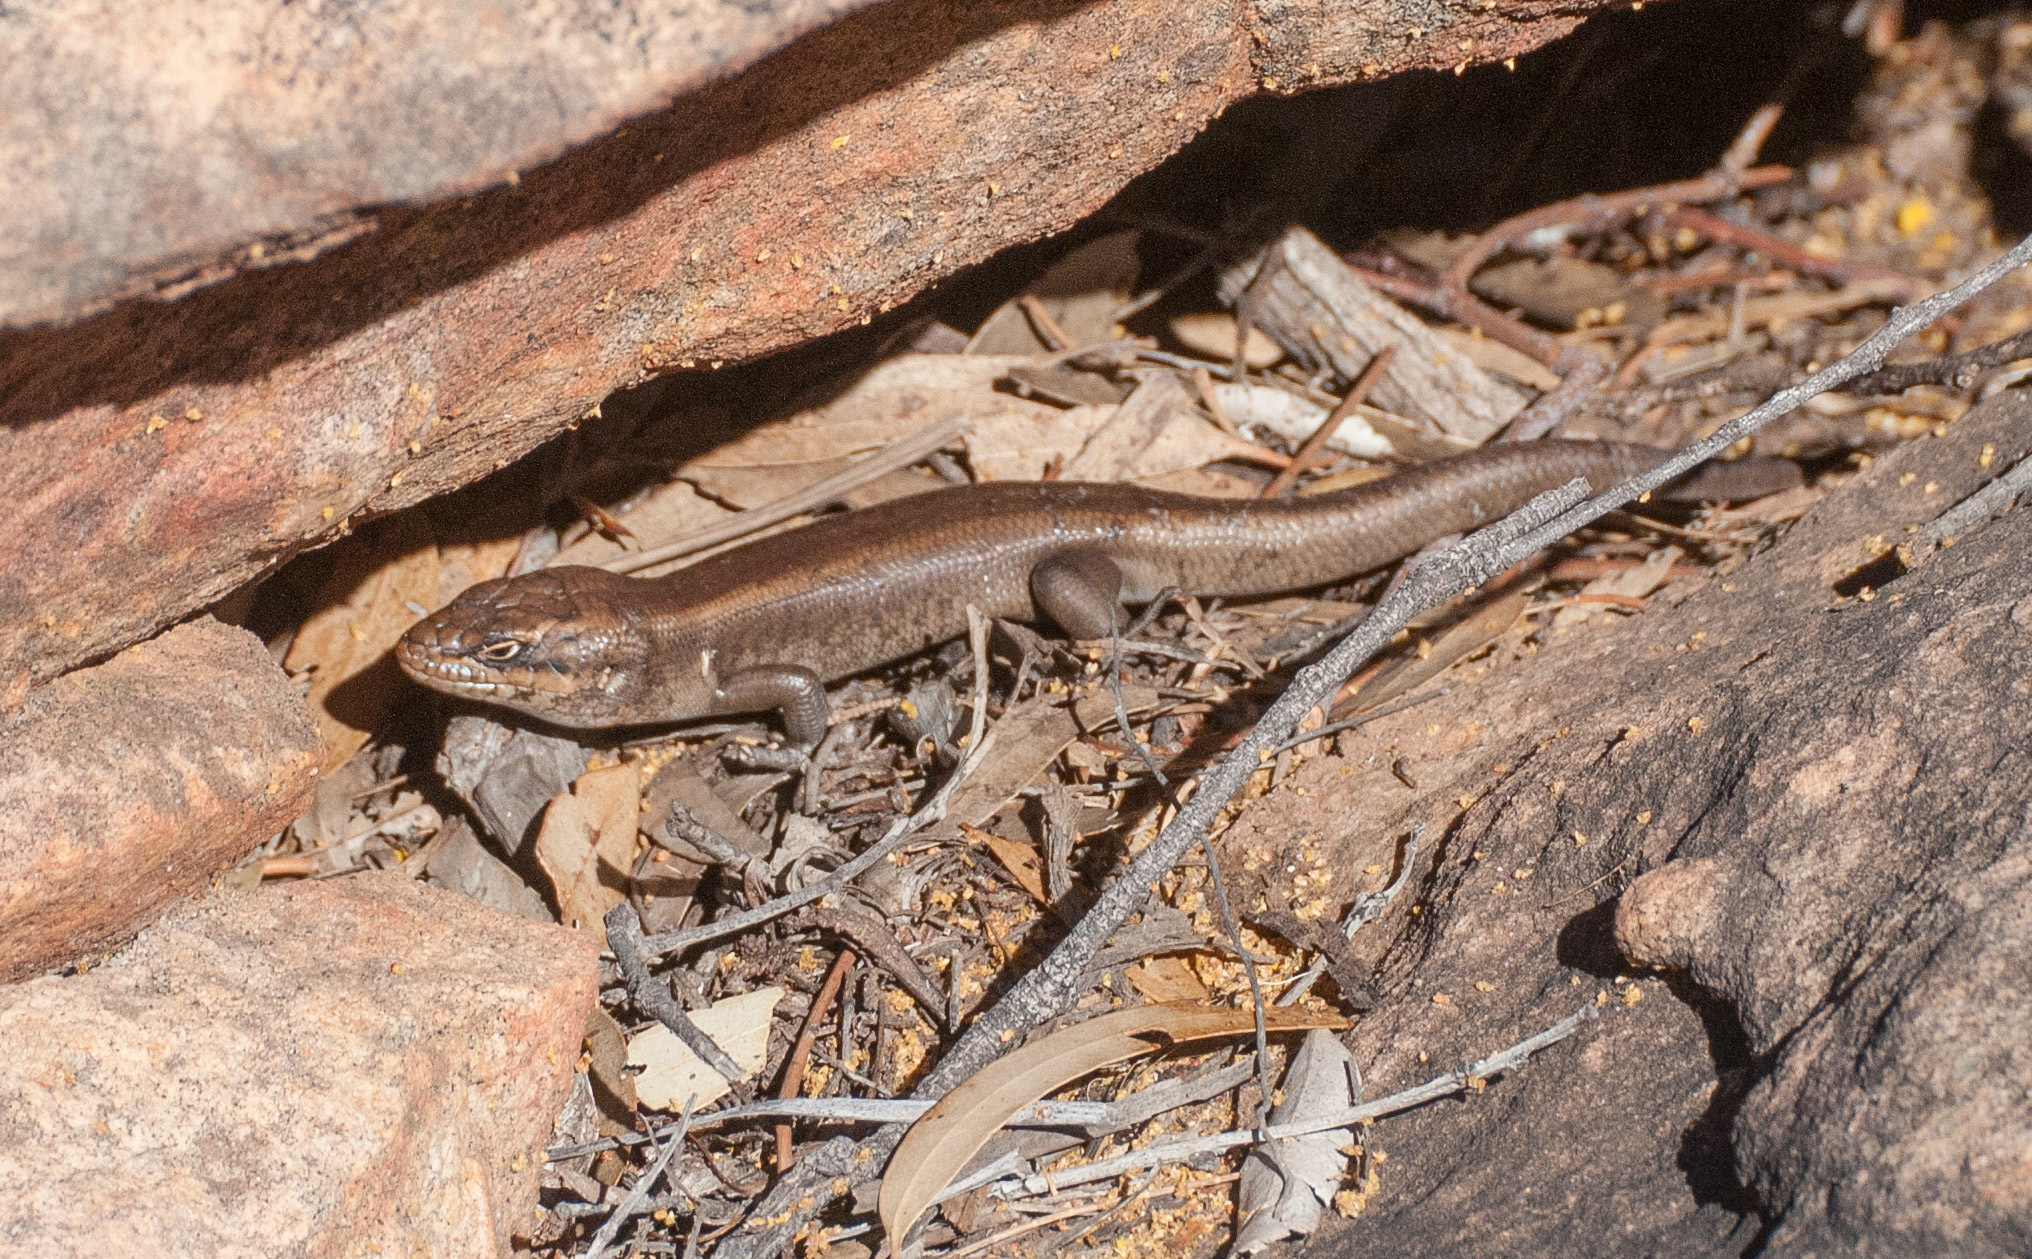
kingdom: Animalia
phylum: Chordata
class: Squamata
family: Scincidae
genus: Liopholis
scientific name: Liopholis personata
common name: Centralian ranges rock-skink
